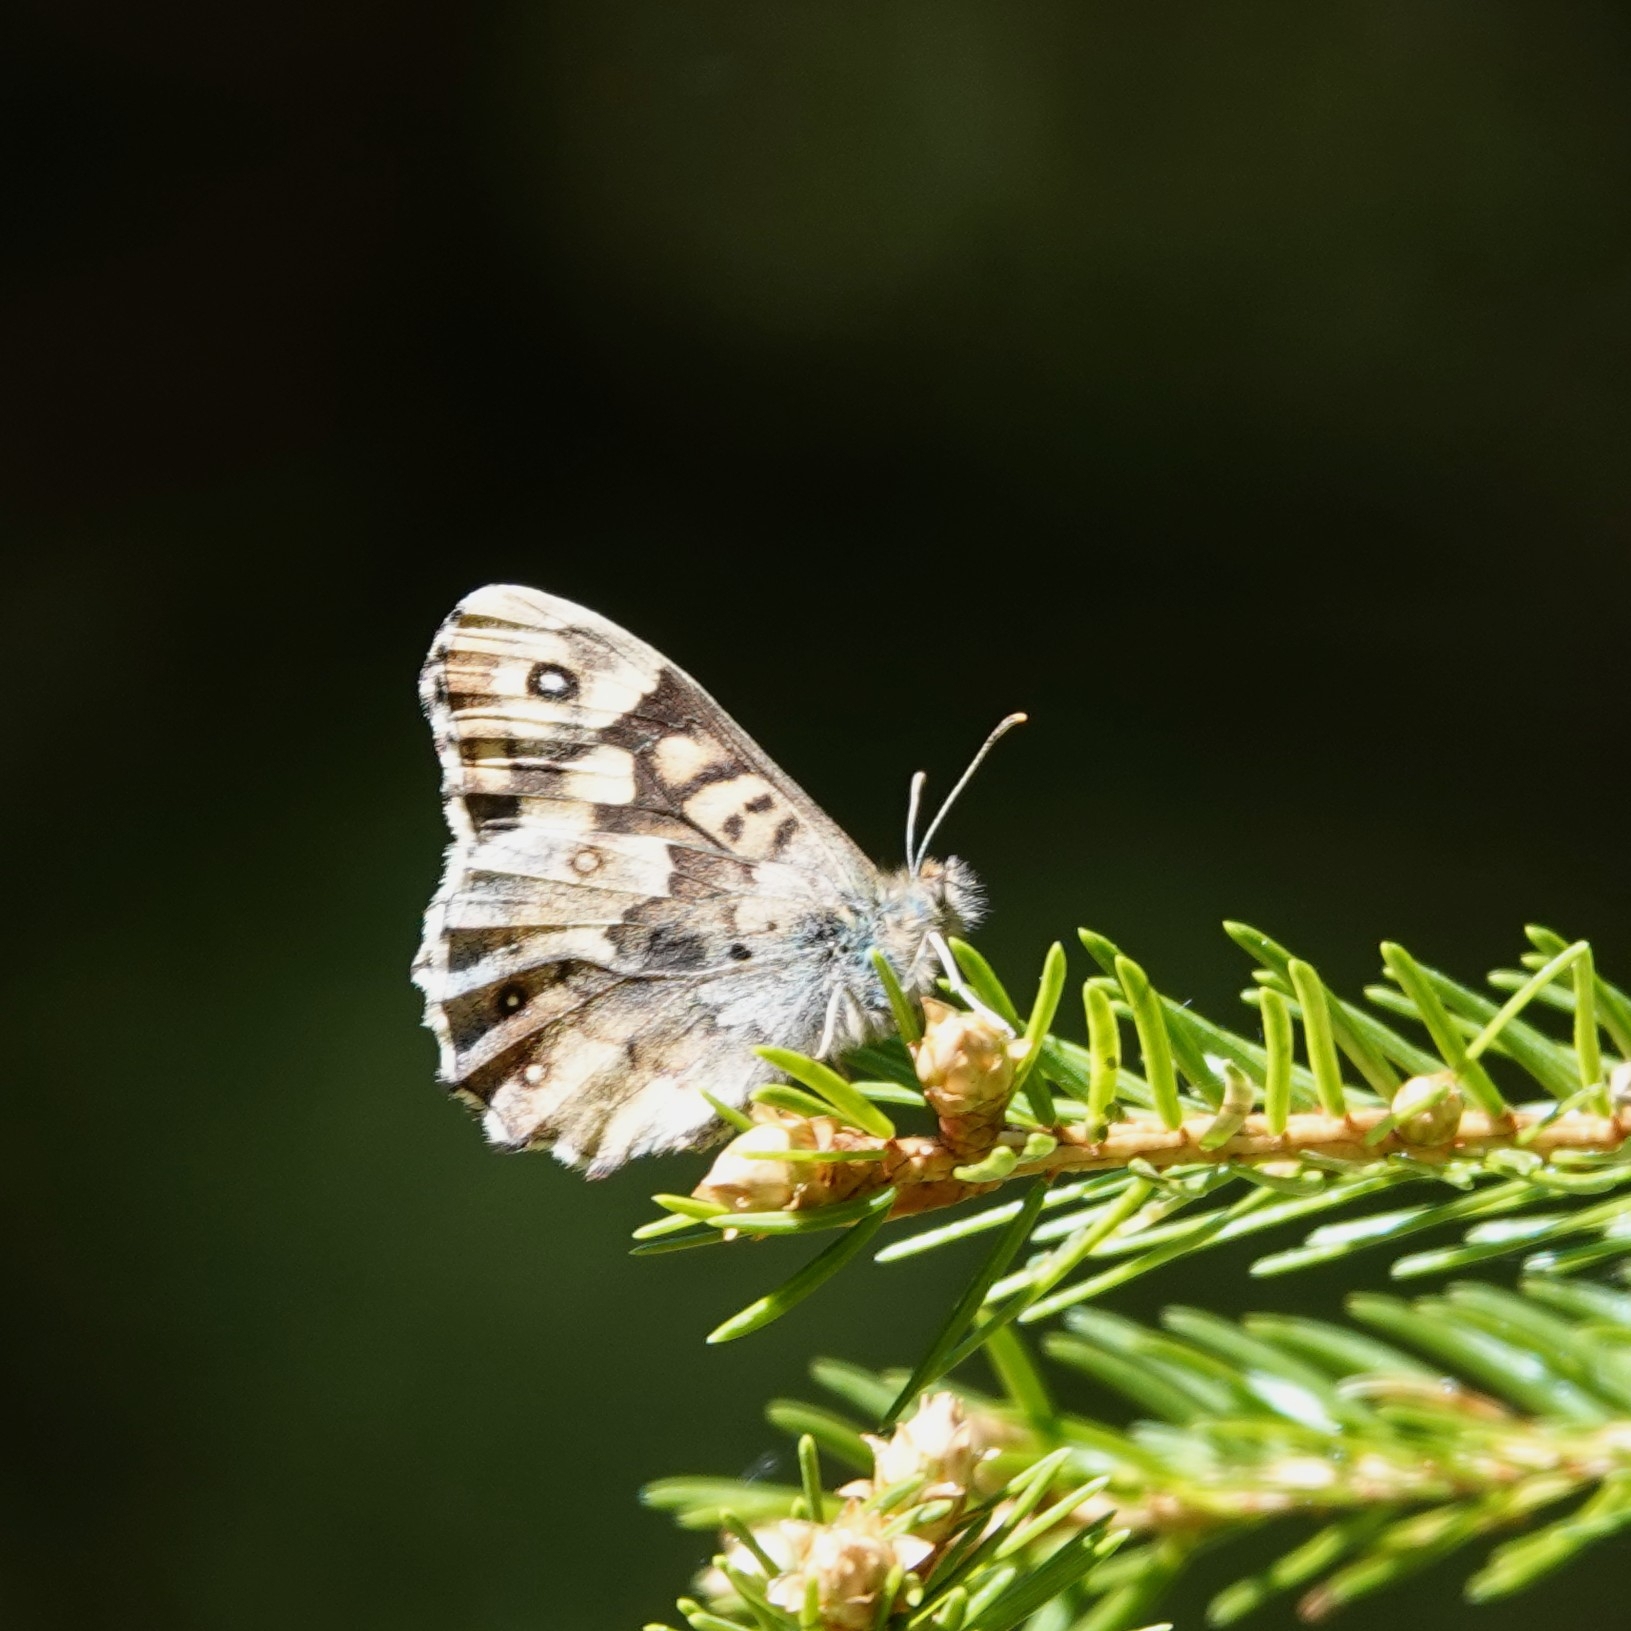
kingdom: Animalia
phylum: Arthropoda
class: Insecta
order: Lepidoptera
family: Nymphalidae
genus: Pararge
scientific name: Pararge aegeria
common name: Speckled wood
